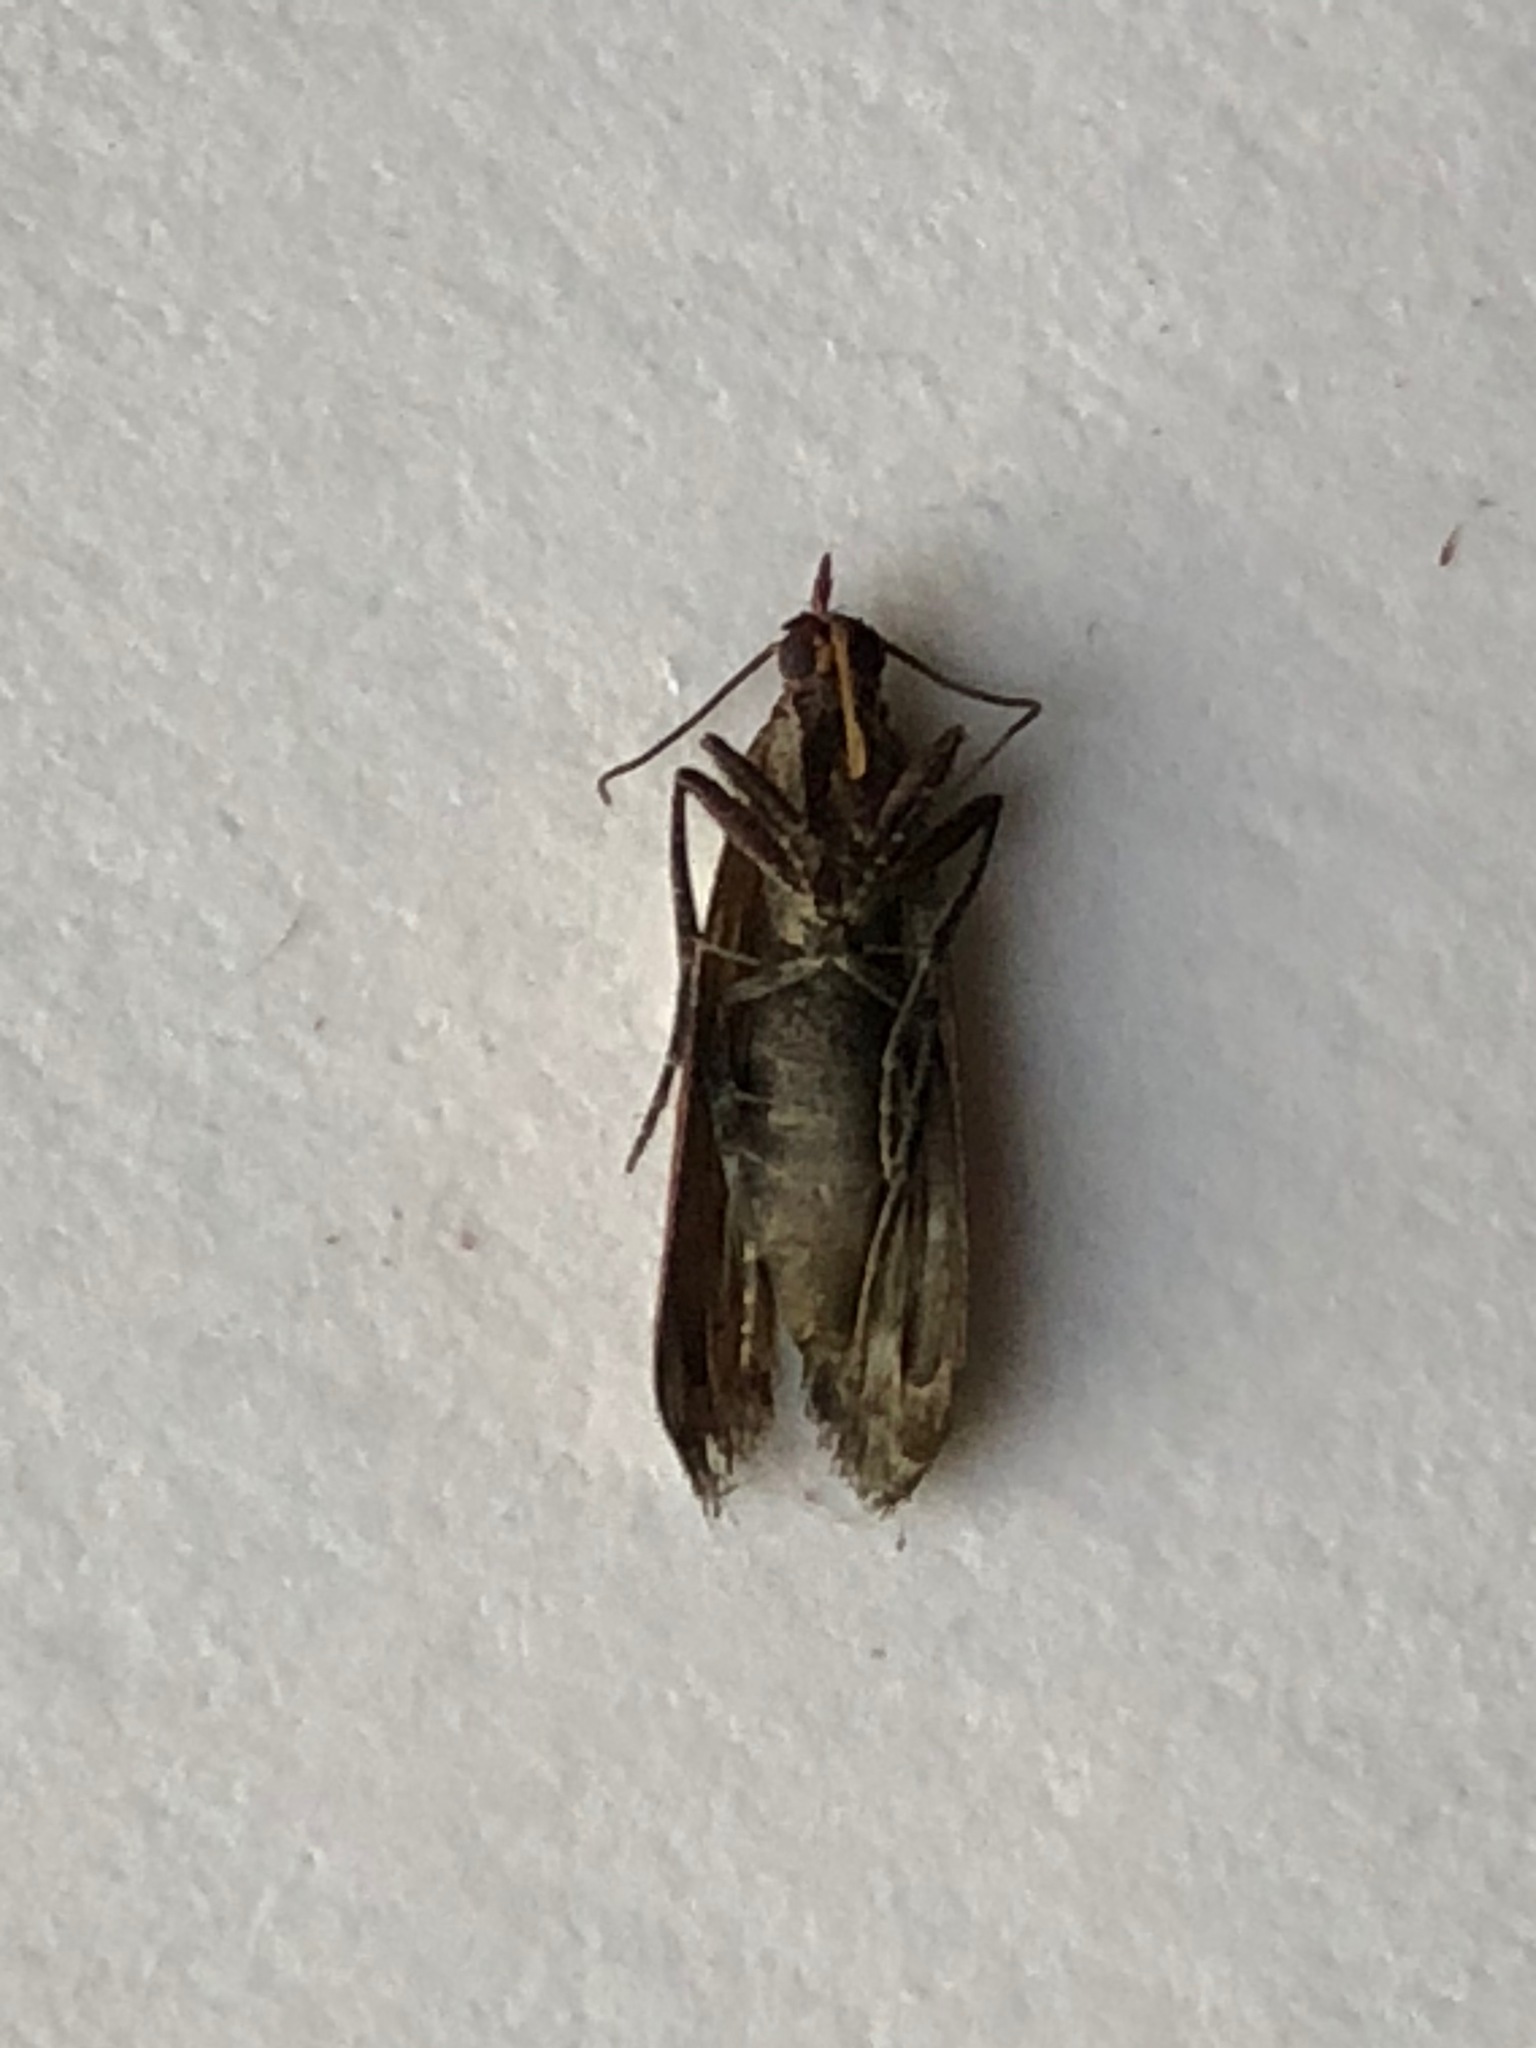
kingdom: Animalia
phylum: Arthropoda
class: Insecta
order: Lepidoptera
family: Pyralidae
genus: Plodia
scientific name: Plodia interpunctella
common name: Indian meal moth
